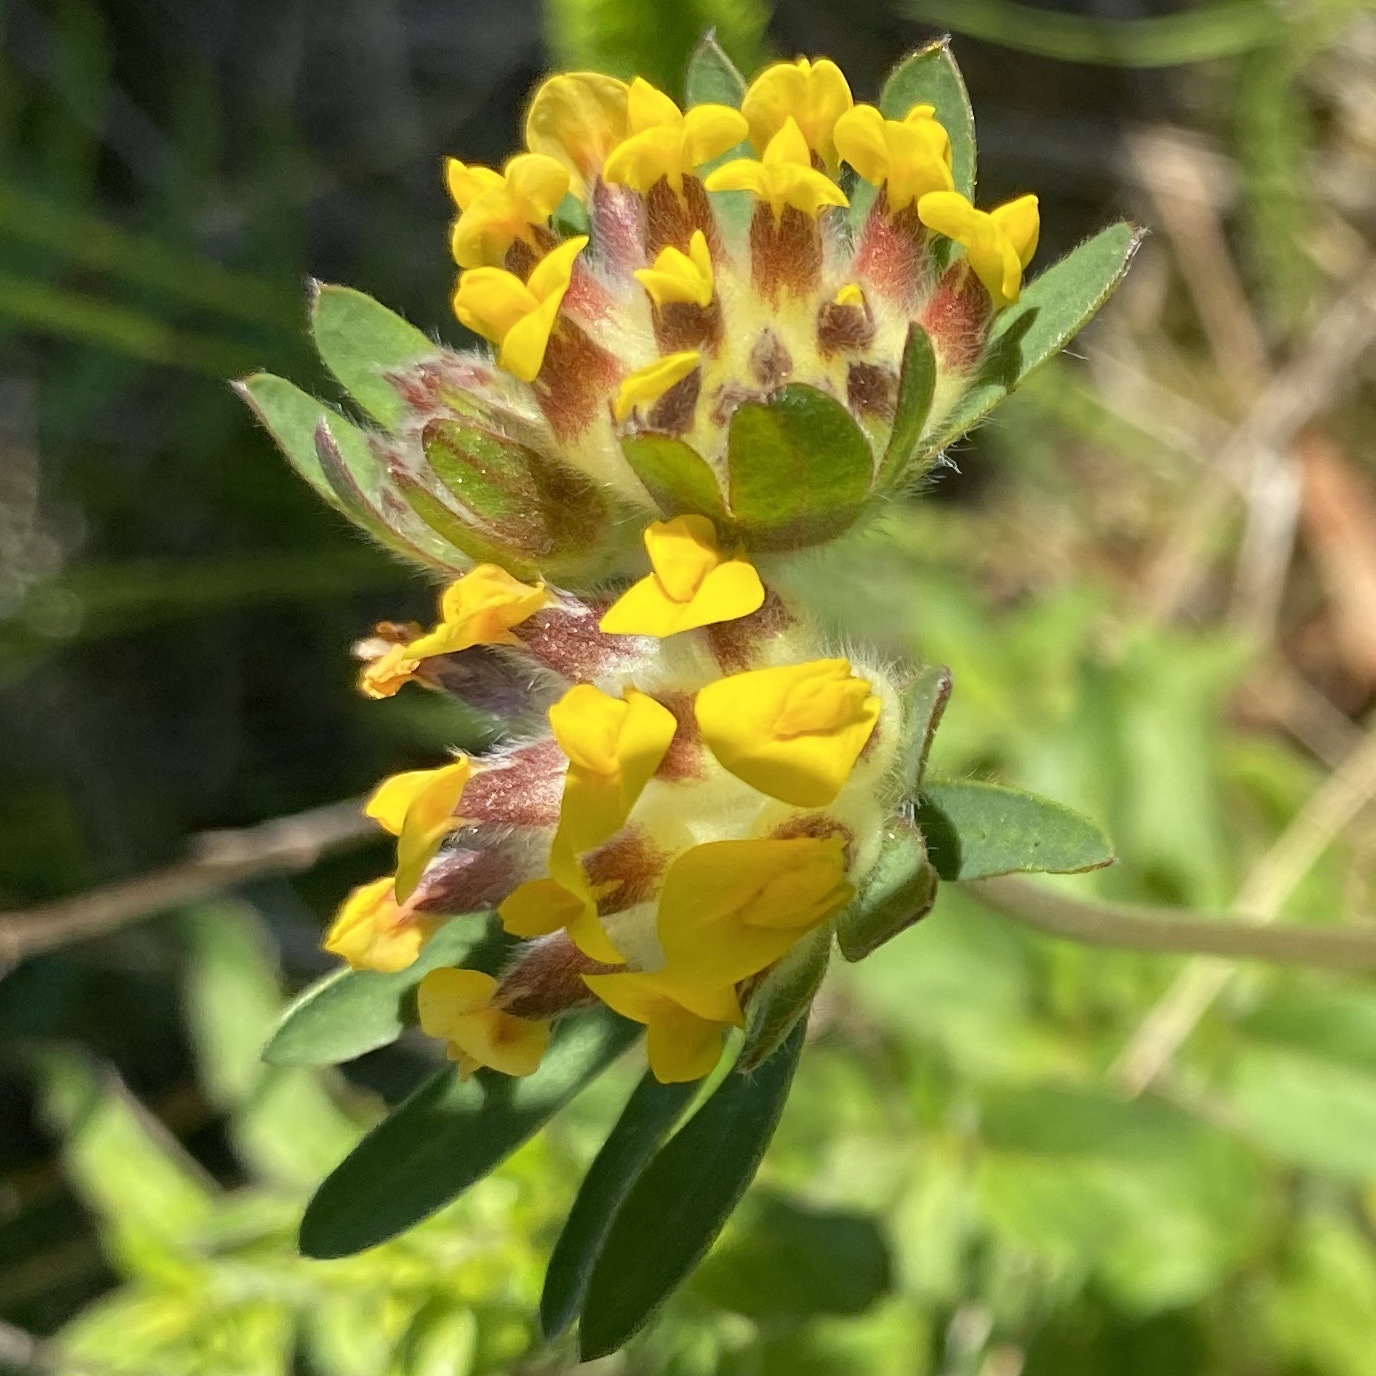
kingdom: Plantae
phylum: Tracheophyta
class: Magnoliopsida
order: Fabales
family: Fabaceae
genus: Anthyllis
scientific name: Anthyllis vulneraria
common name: Kidney vetch
